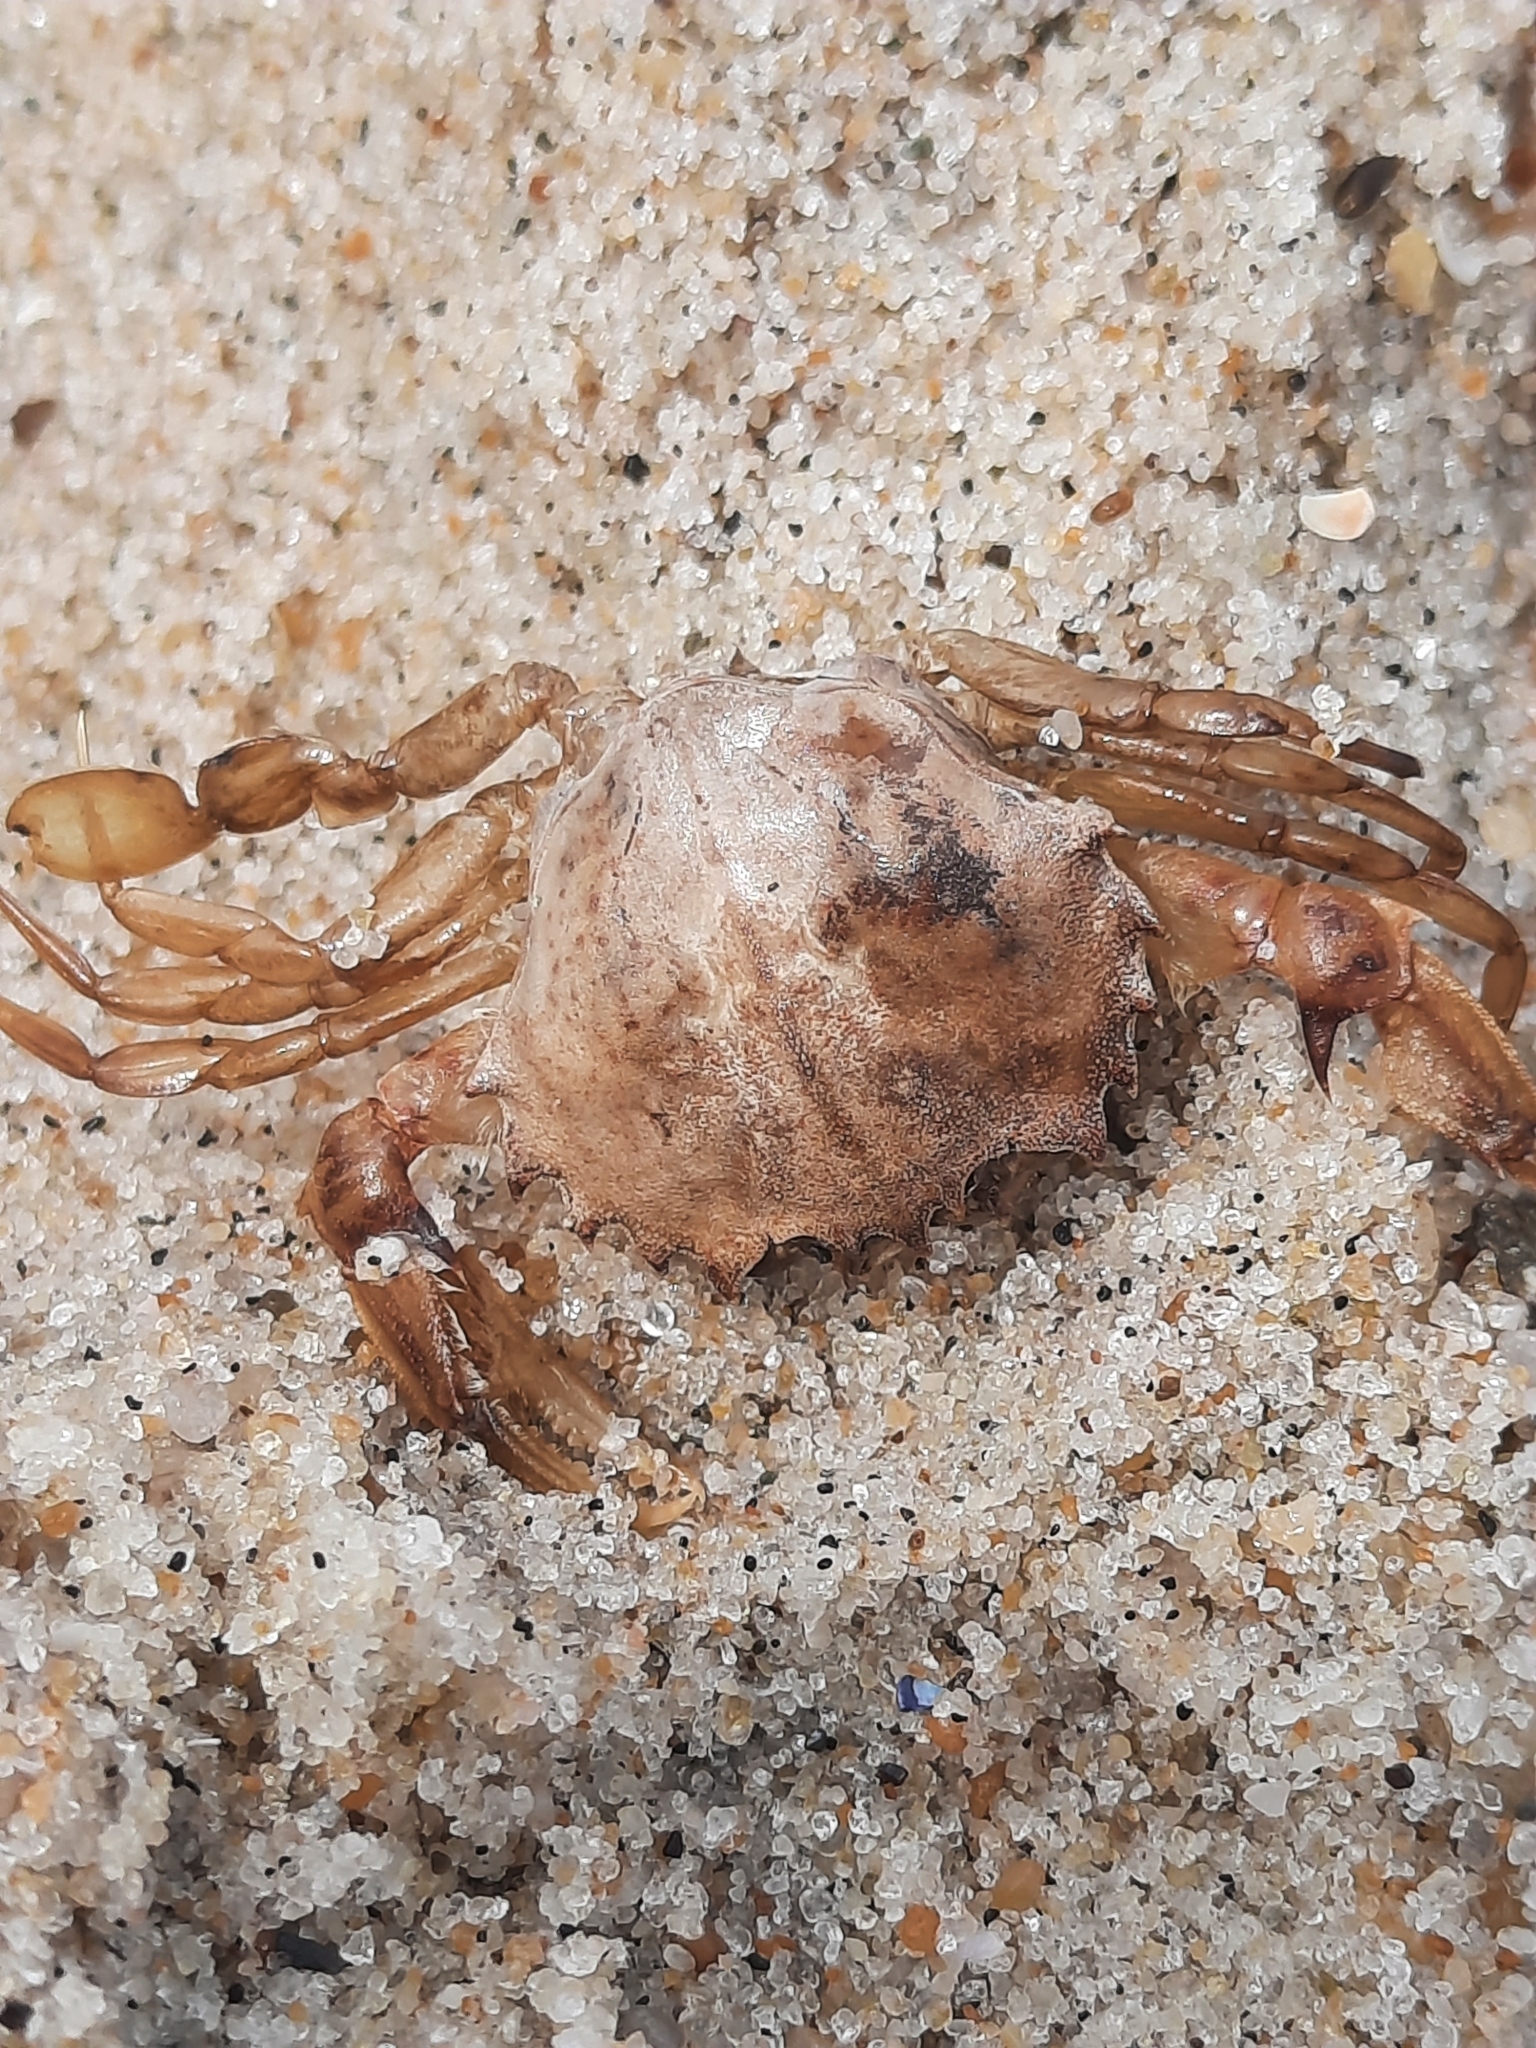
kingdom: Animalia
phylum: Arthropoda
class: Malacostraca
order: Decapoda
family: Ovalipidae
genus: Ovalipes
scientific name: Ovalipes ocellatus
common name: Lady crab
